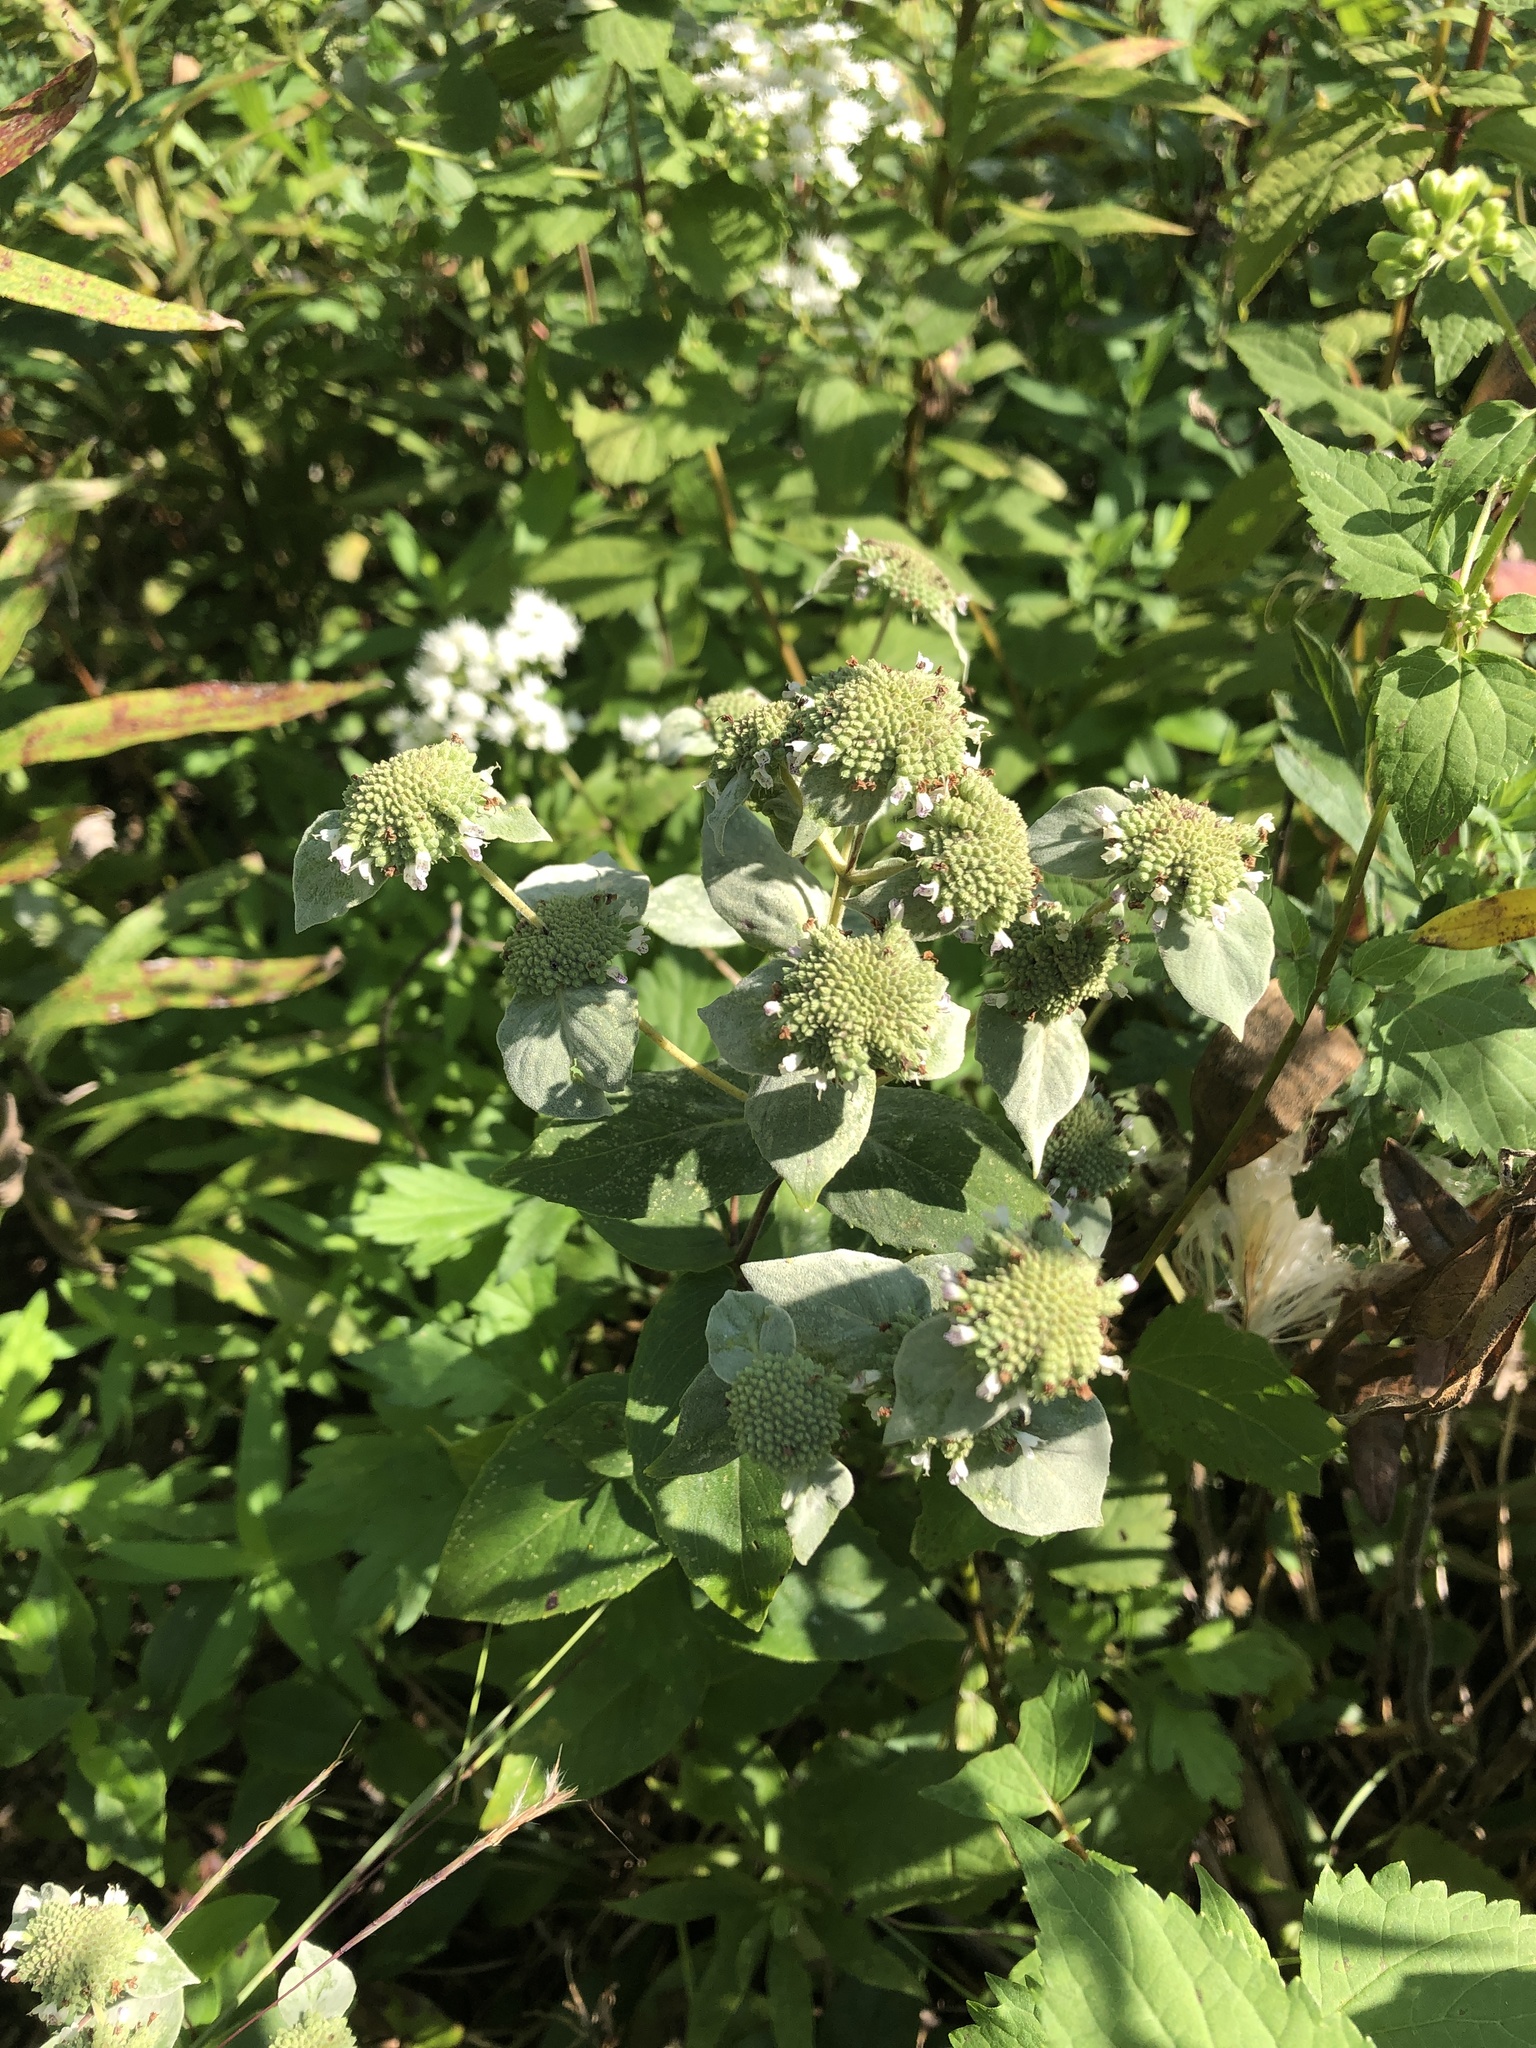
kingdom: Plantae
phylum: Tracheophyta
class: Magnoliopsida
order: Lamiales
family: Lamiaceae
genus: Pycnanthemum
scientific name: Pycnanthemum muticum
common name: Blunt mountain-mint
